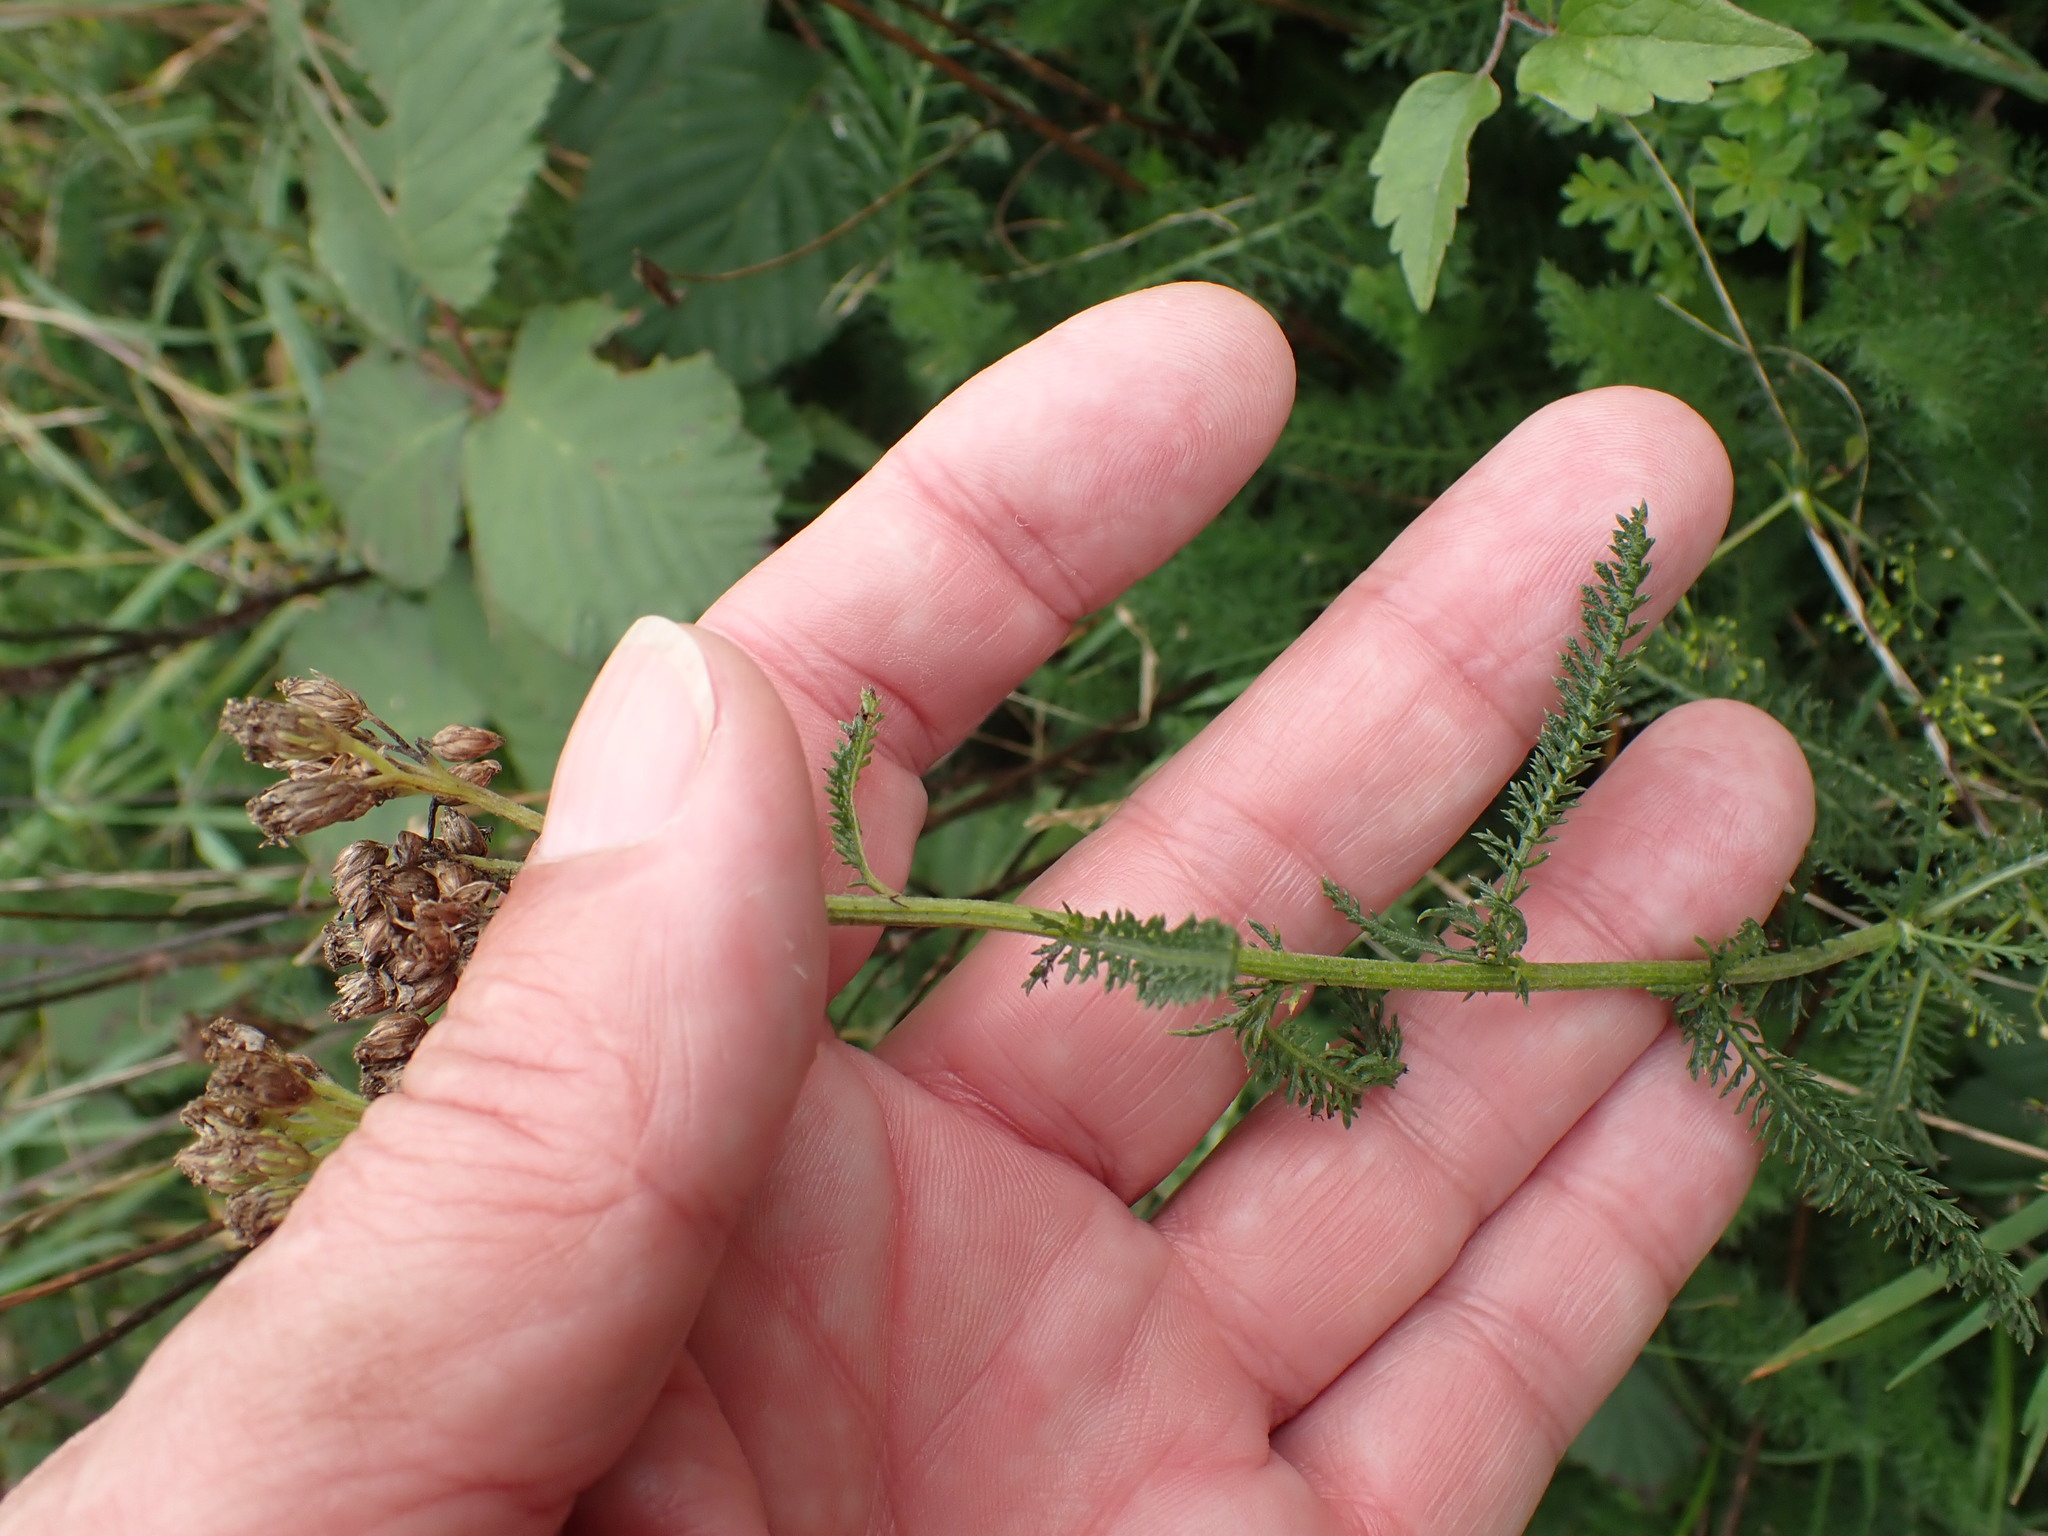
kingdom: Plantae
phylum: Tracheophyta
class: Magnoliopsida
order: Asterales
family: Asteraceae
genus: Achillea
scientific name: Achillea millefolium
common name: Yarrow
